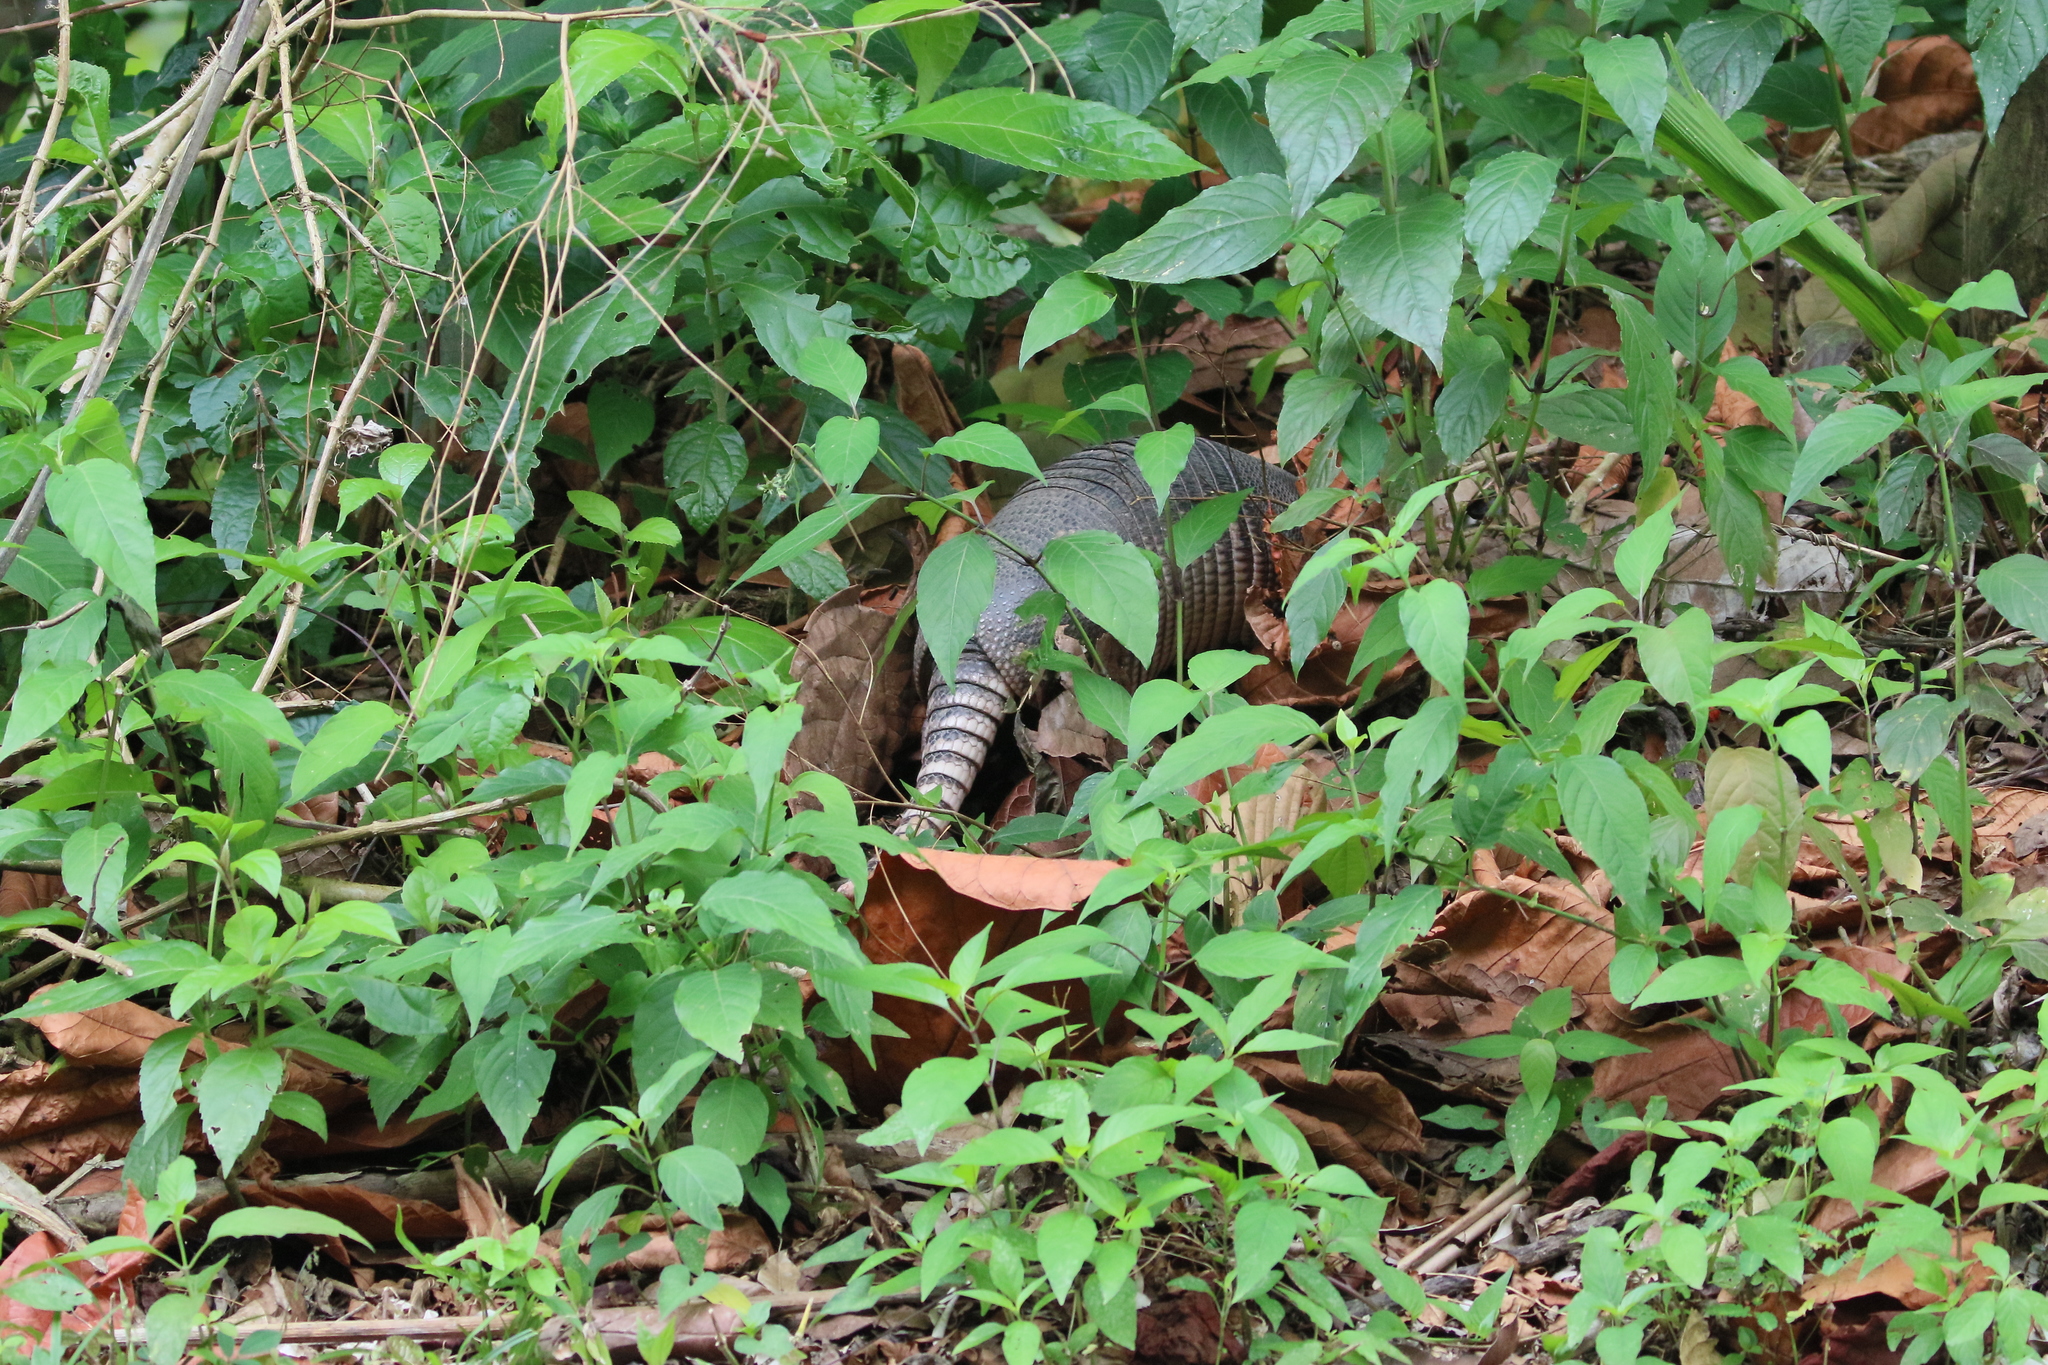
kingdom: Animalia
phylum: Chordata
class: Mammalia
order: Cingulata
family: Dasypodidae
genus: Dasypus
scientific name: Dasypus novemcinctus
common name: Nine-banded armadillo
